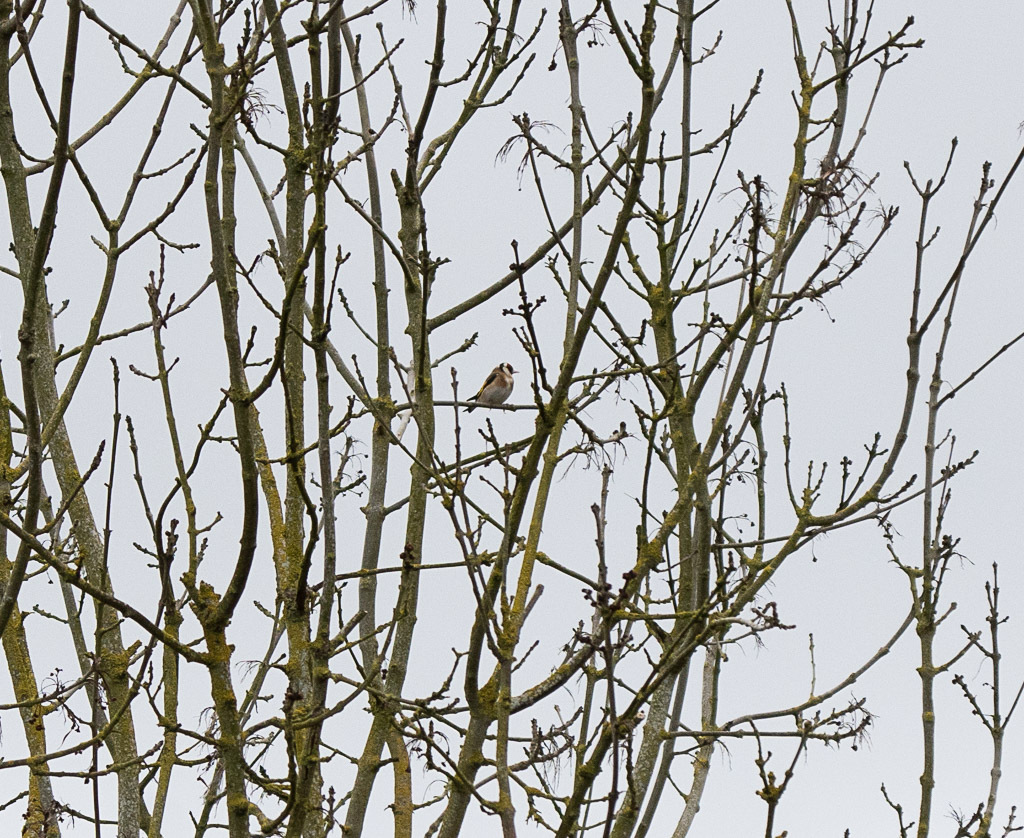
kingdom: Animalia
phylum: Chordata
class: Aves
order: Passeriformes
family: Fringillidae
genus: Carduelis
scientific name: Carduelis carduelis
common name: European goldfinch
